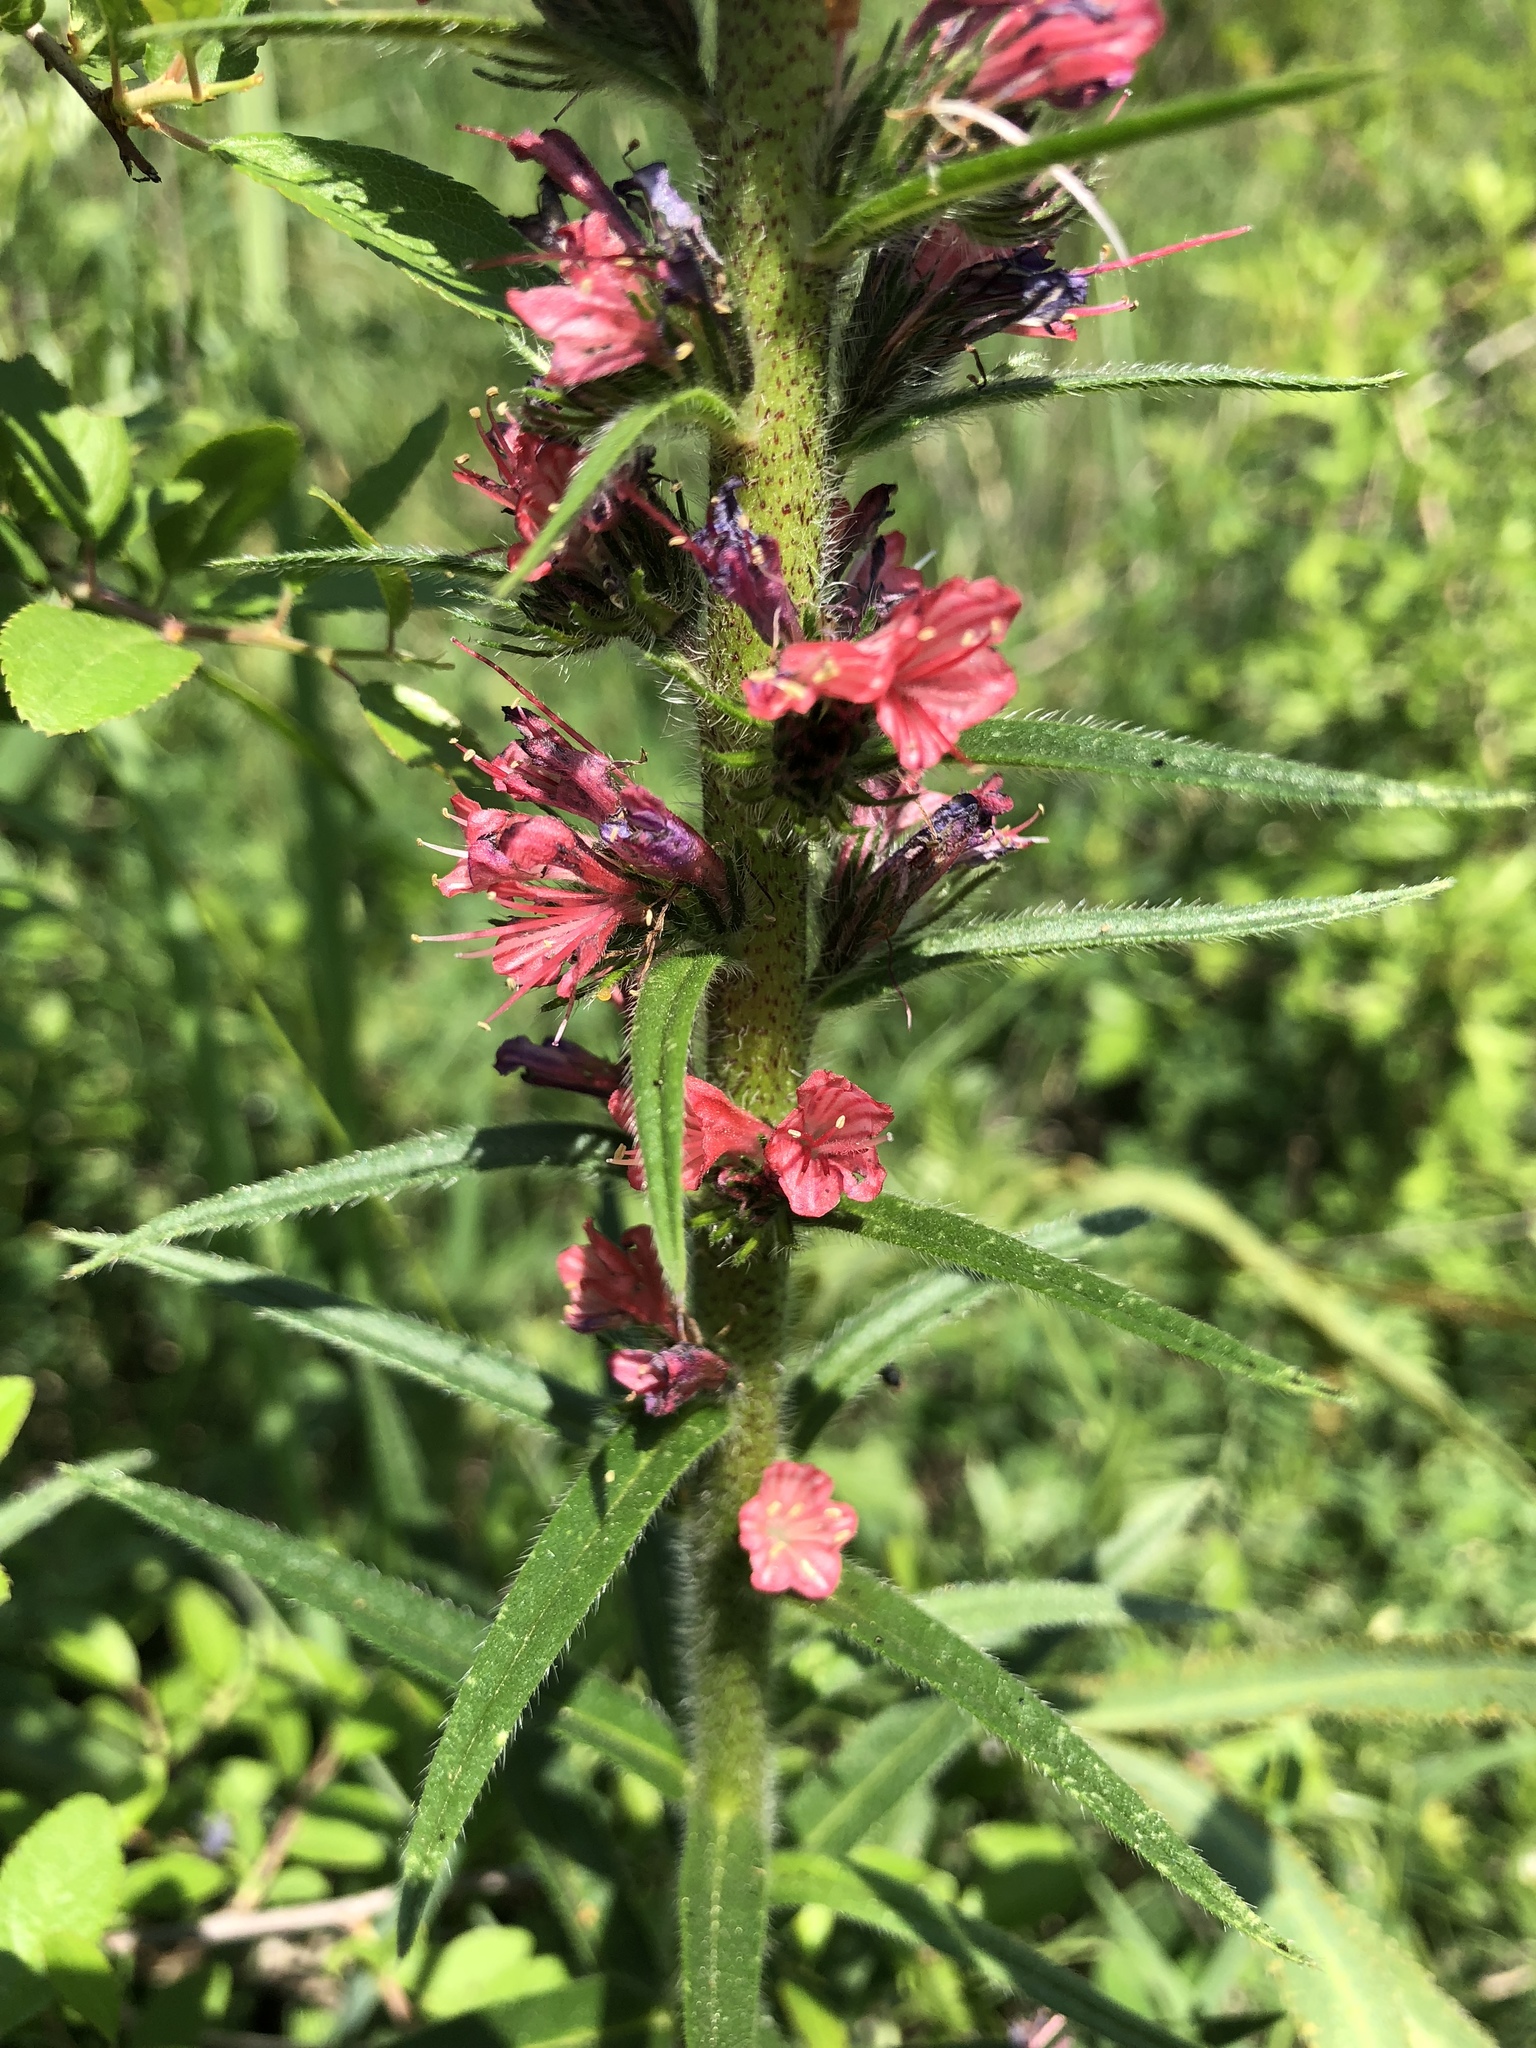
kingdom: Plantae
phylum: Tracheophyta
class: Magnoliopsida
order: Boraginales
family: Boraginaceae
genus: Pontechium
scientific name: Pontechium maculatum
